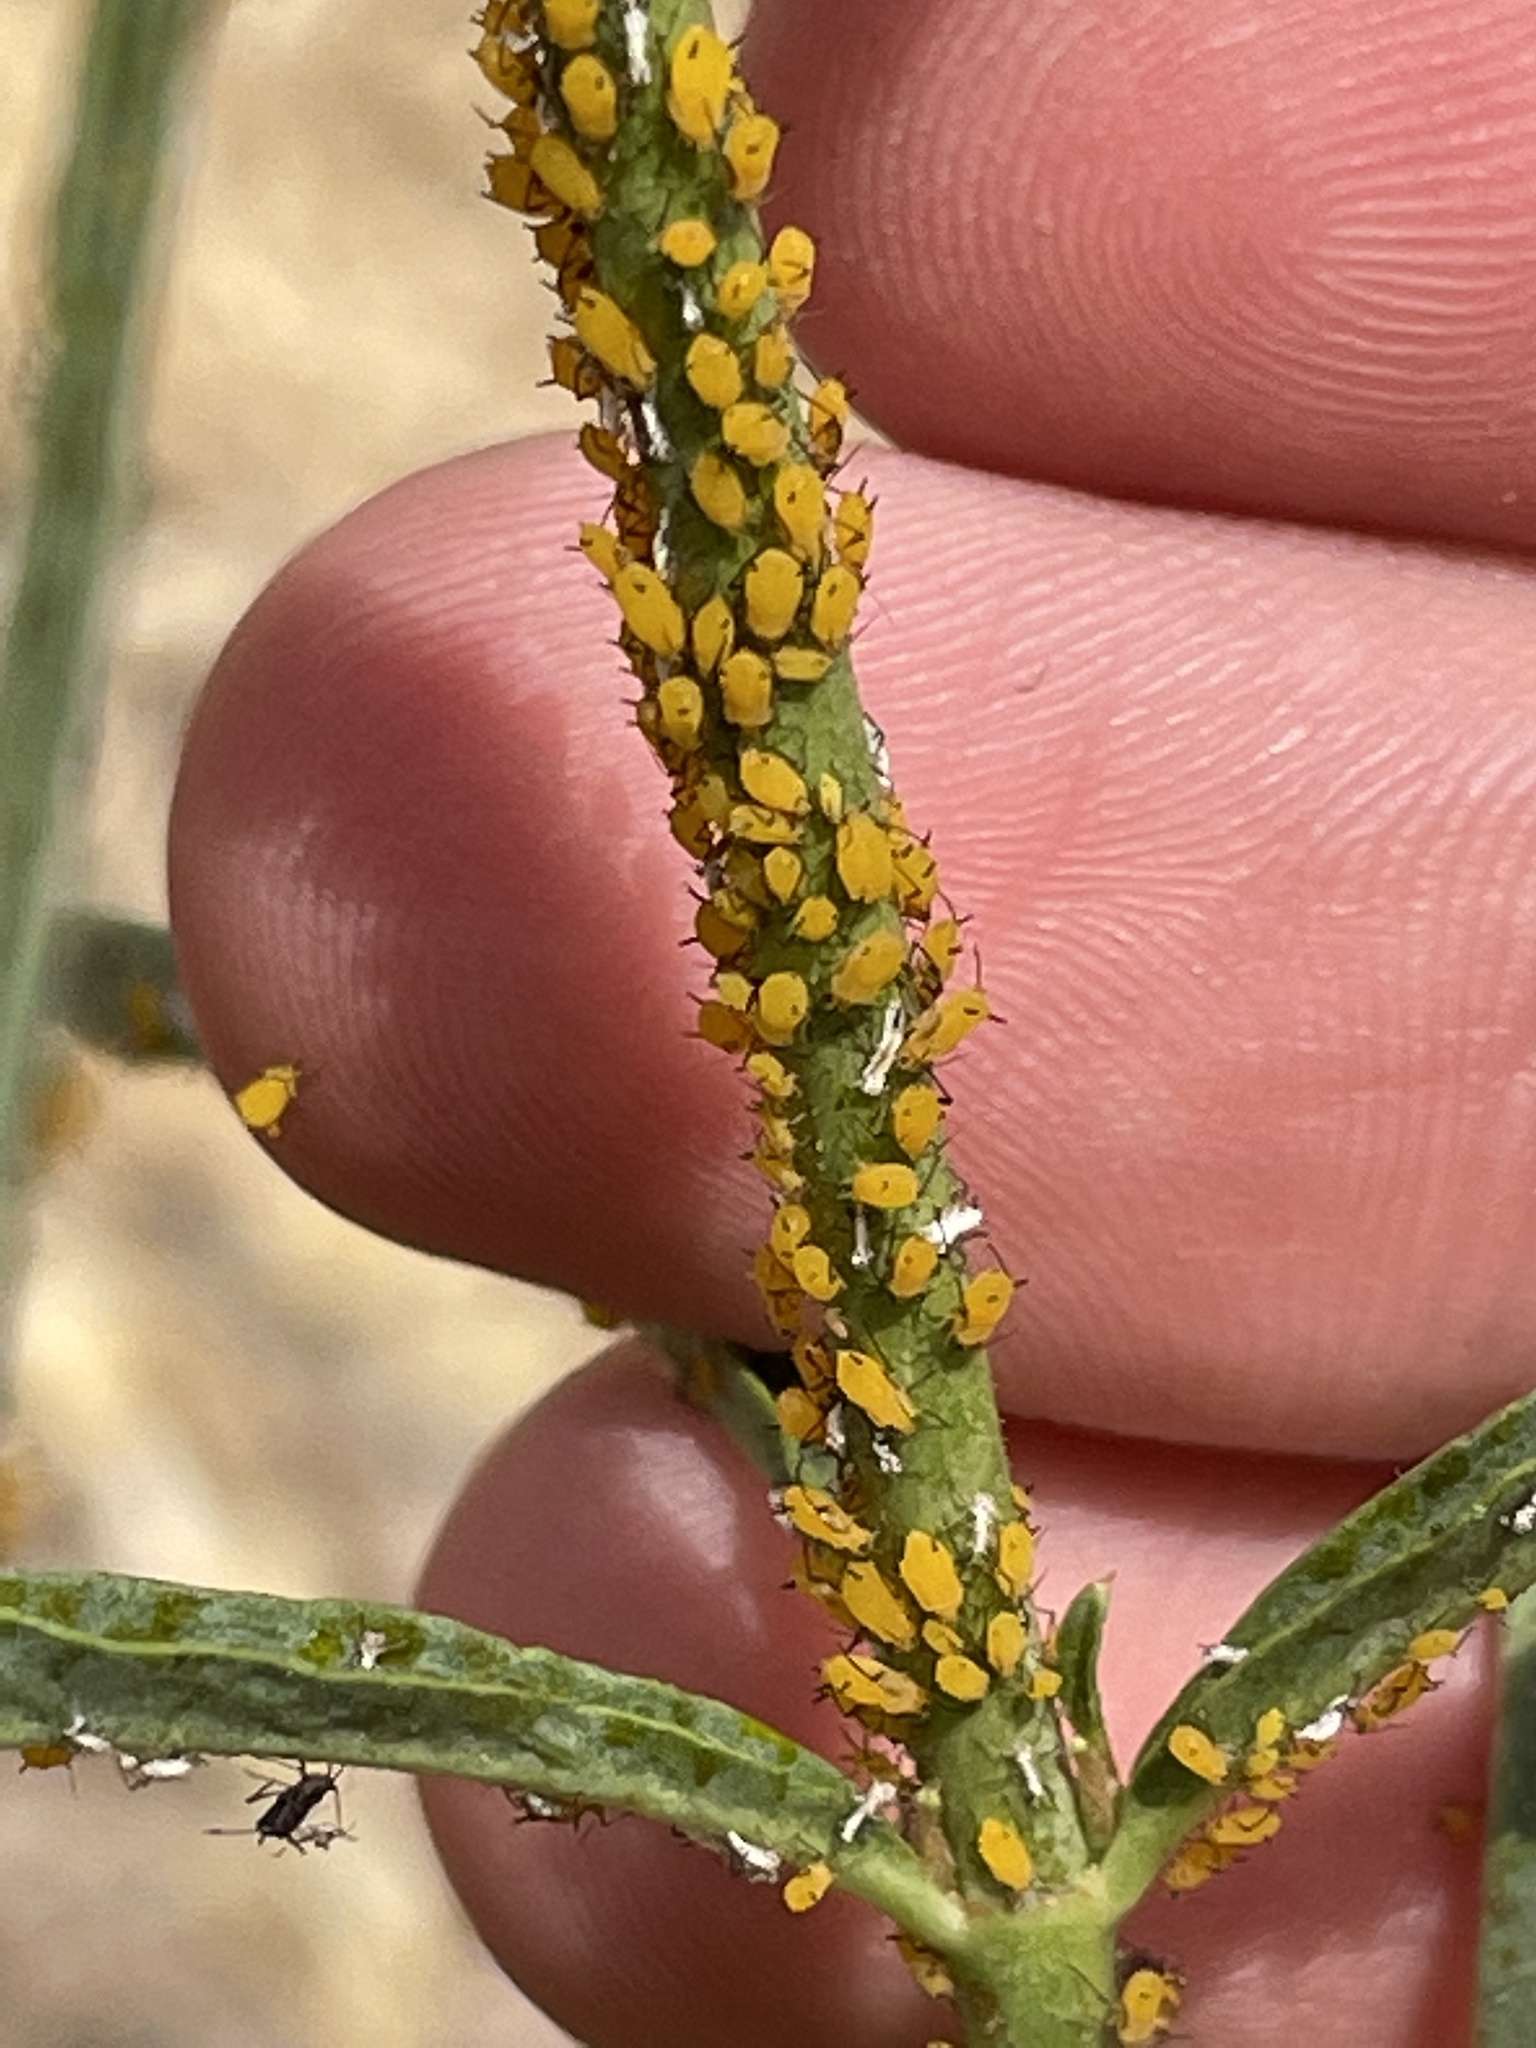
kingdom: Animalia
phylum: Arthropoda
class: Insecta
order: Hemiptera
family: Aphididae
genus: Aphis
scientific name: Aphis nerii
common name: Oleander aphid
